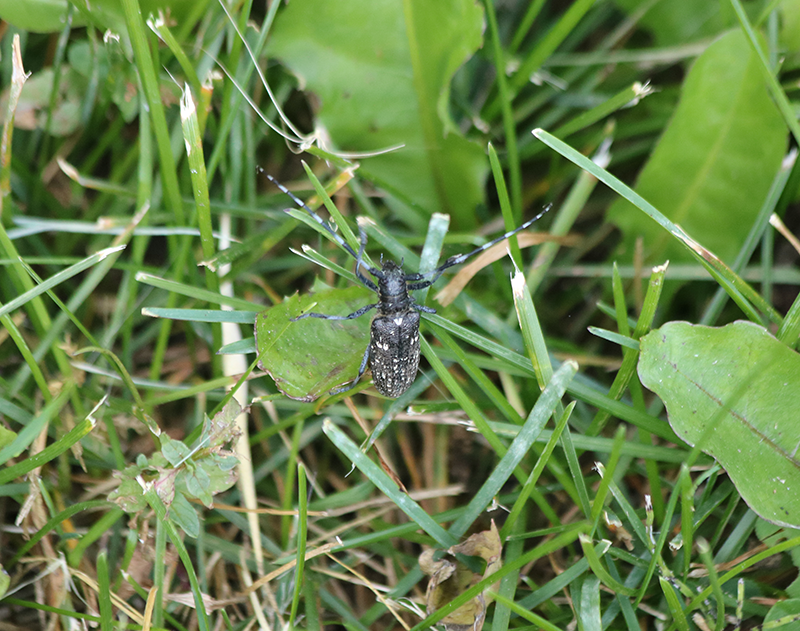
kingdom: Animalia
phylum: Arthropoda
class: Insecta
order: Coleoptera
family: Cerambycidae
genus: Monochamus
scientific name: Monochamus scutellatus
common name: White-spotted sawyer beetle
